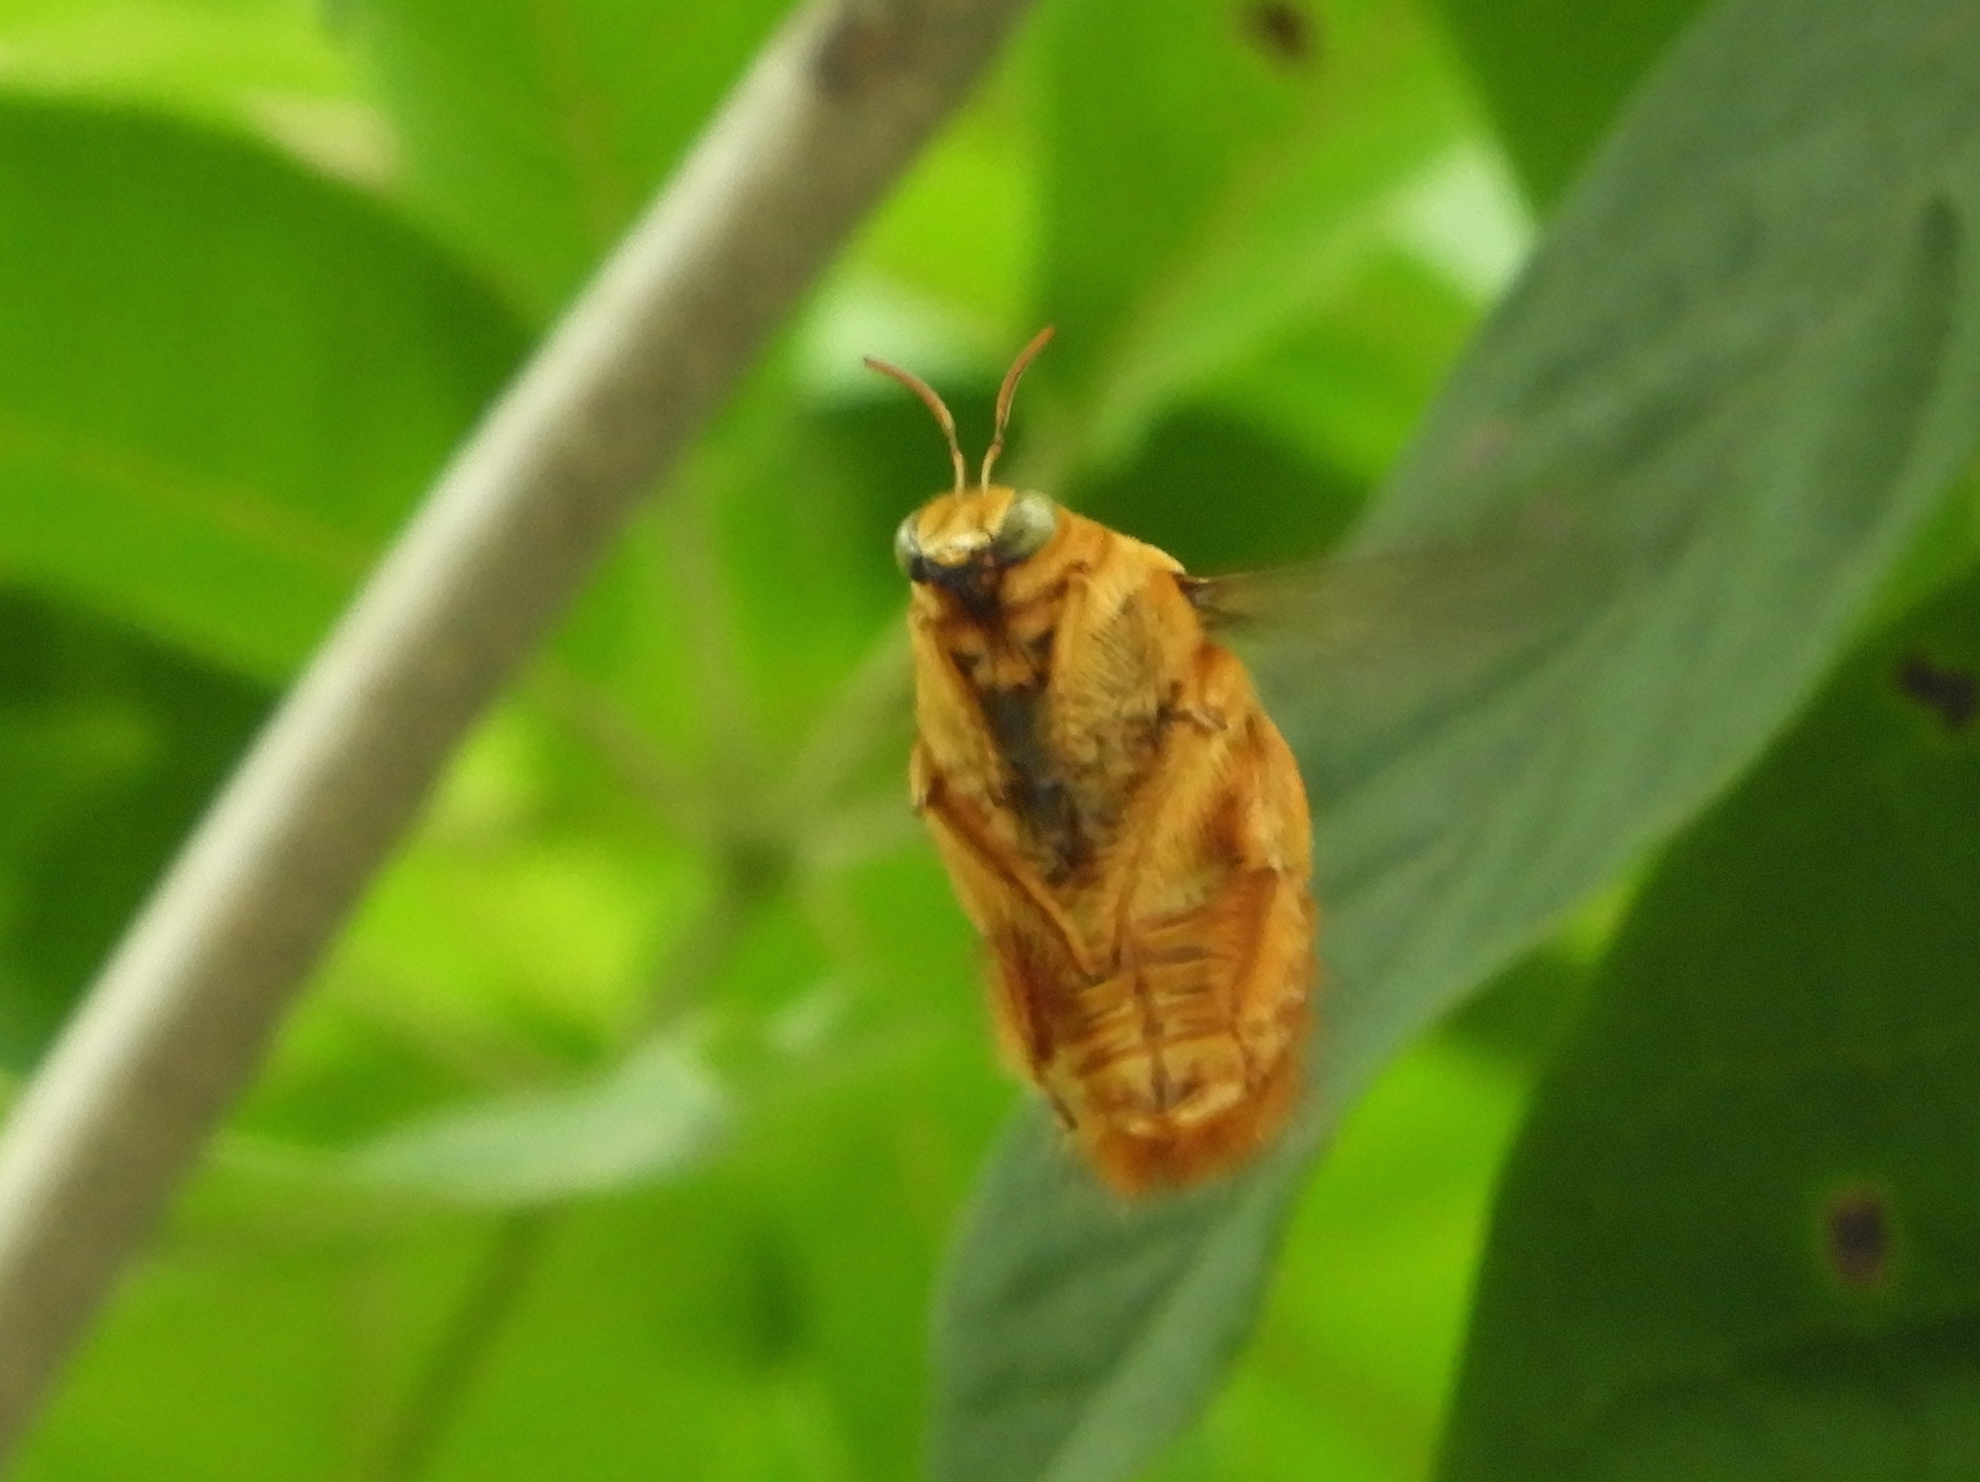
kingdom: Animalia
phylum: Arthropoda
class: Insecta
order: Hymenoptera
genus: Neoxylocopa
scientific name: Neoxylocopa
